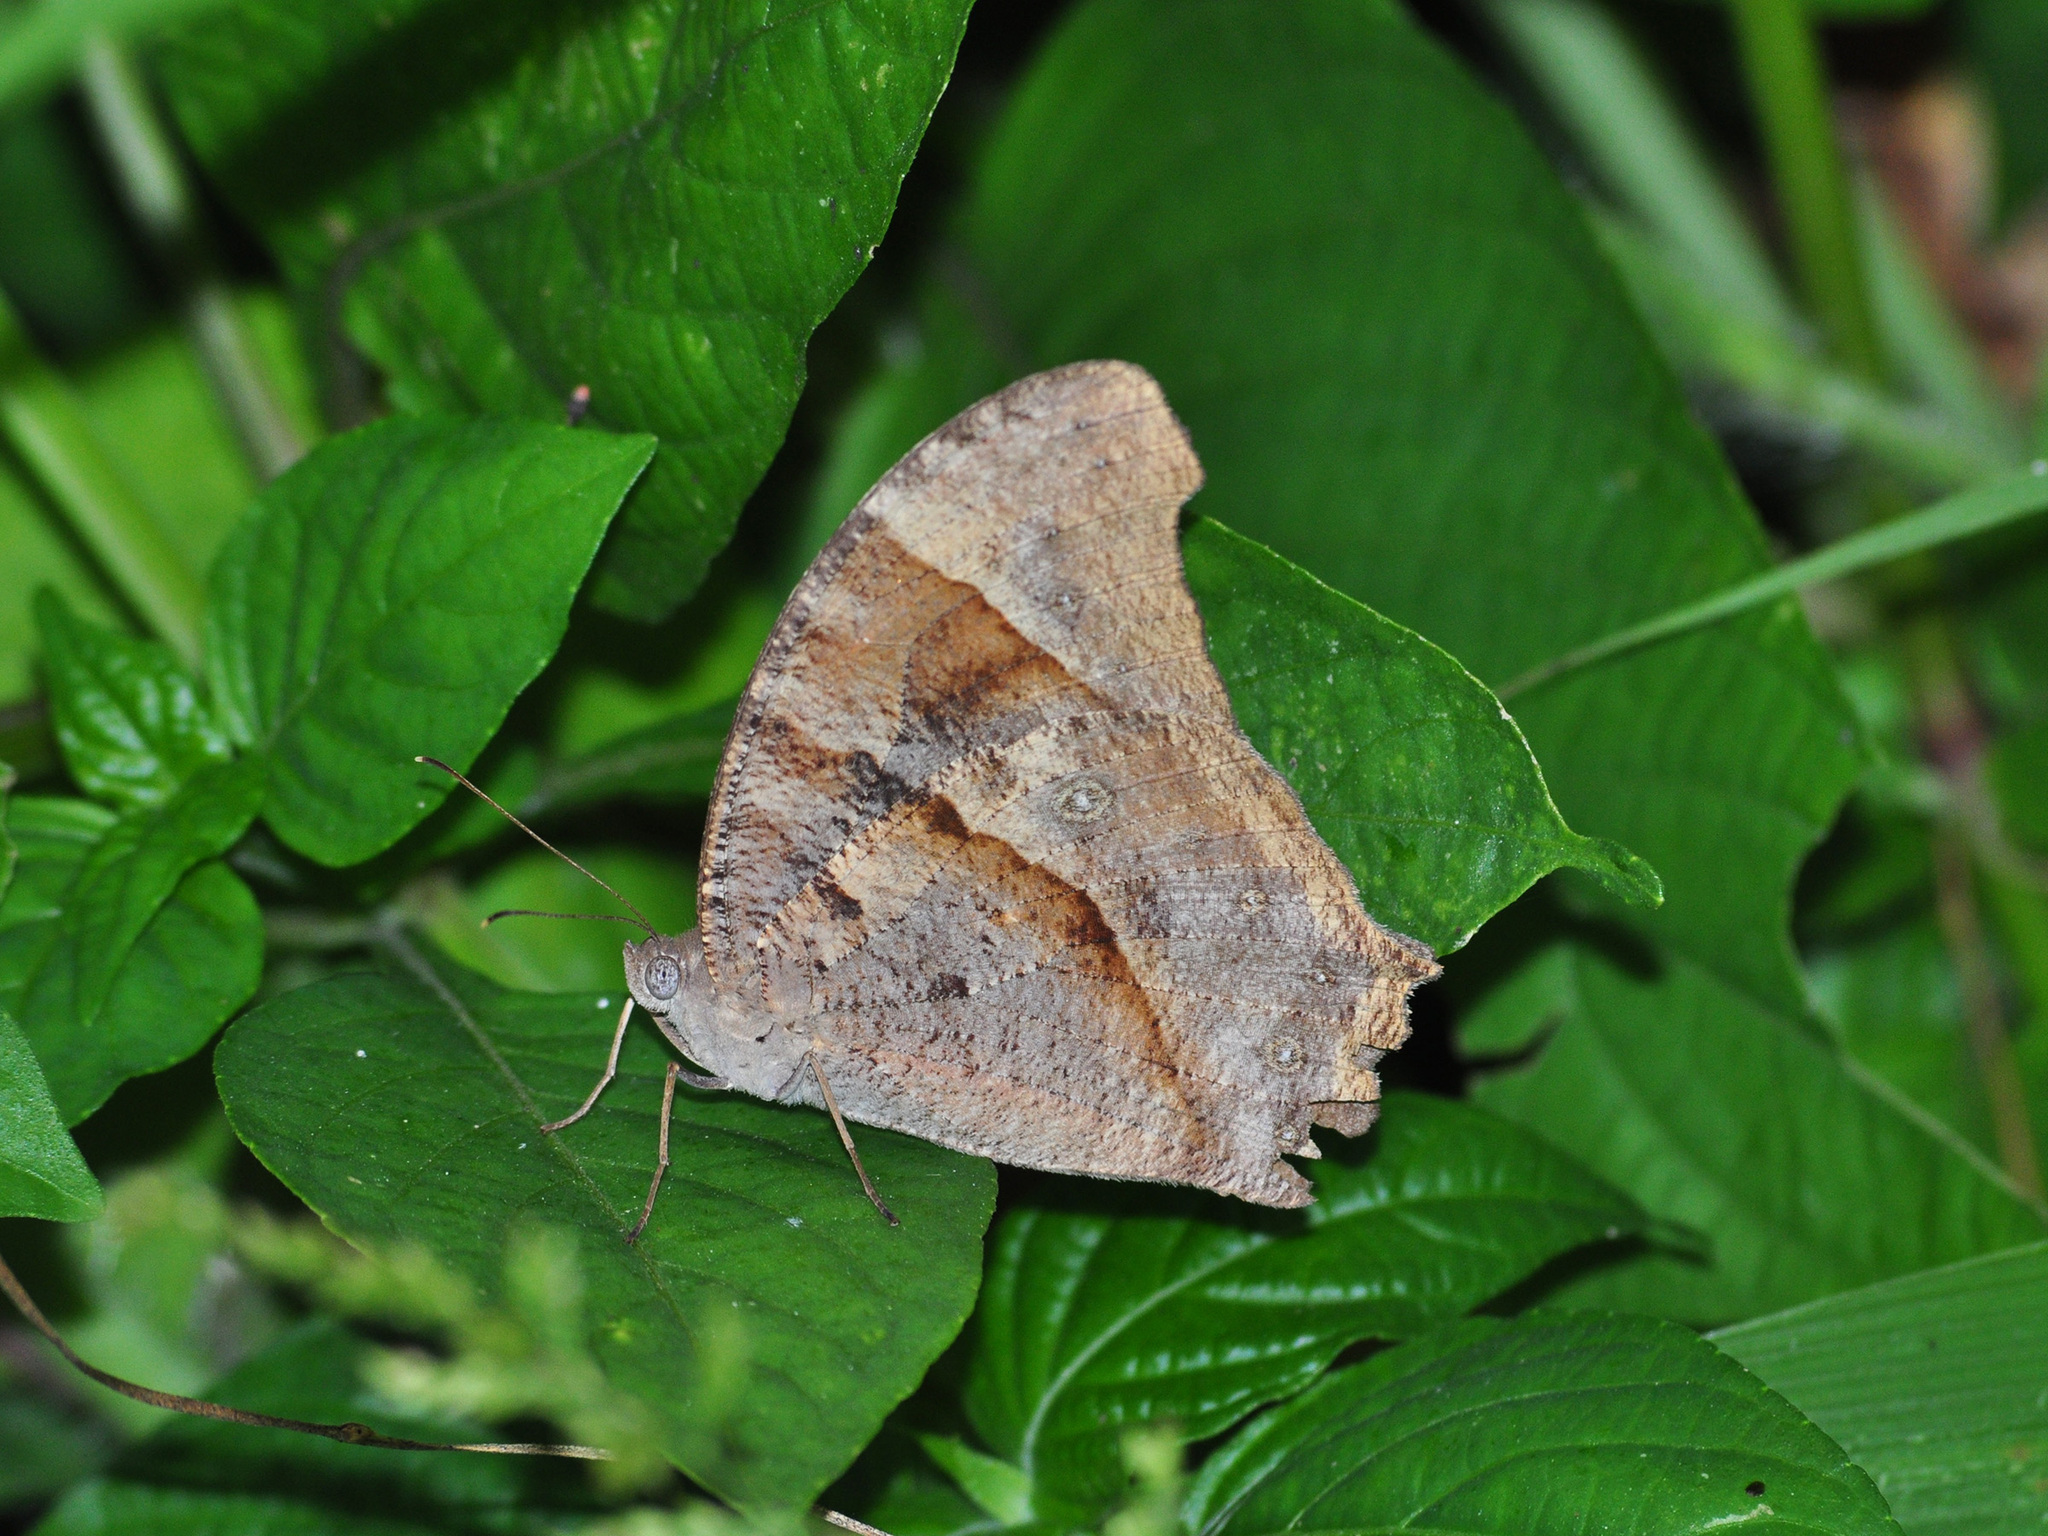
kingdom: Animalia
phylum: Arthropoda
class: Insecta
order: Lepidoptera
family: Nymphalidae
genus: Melanitis
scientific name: Melanitis leda
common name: Twilight brown
